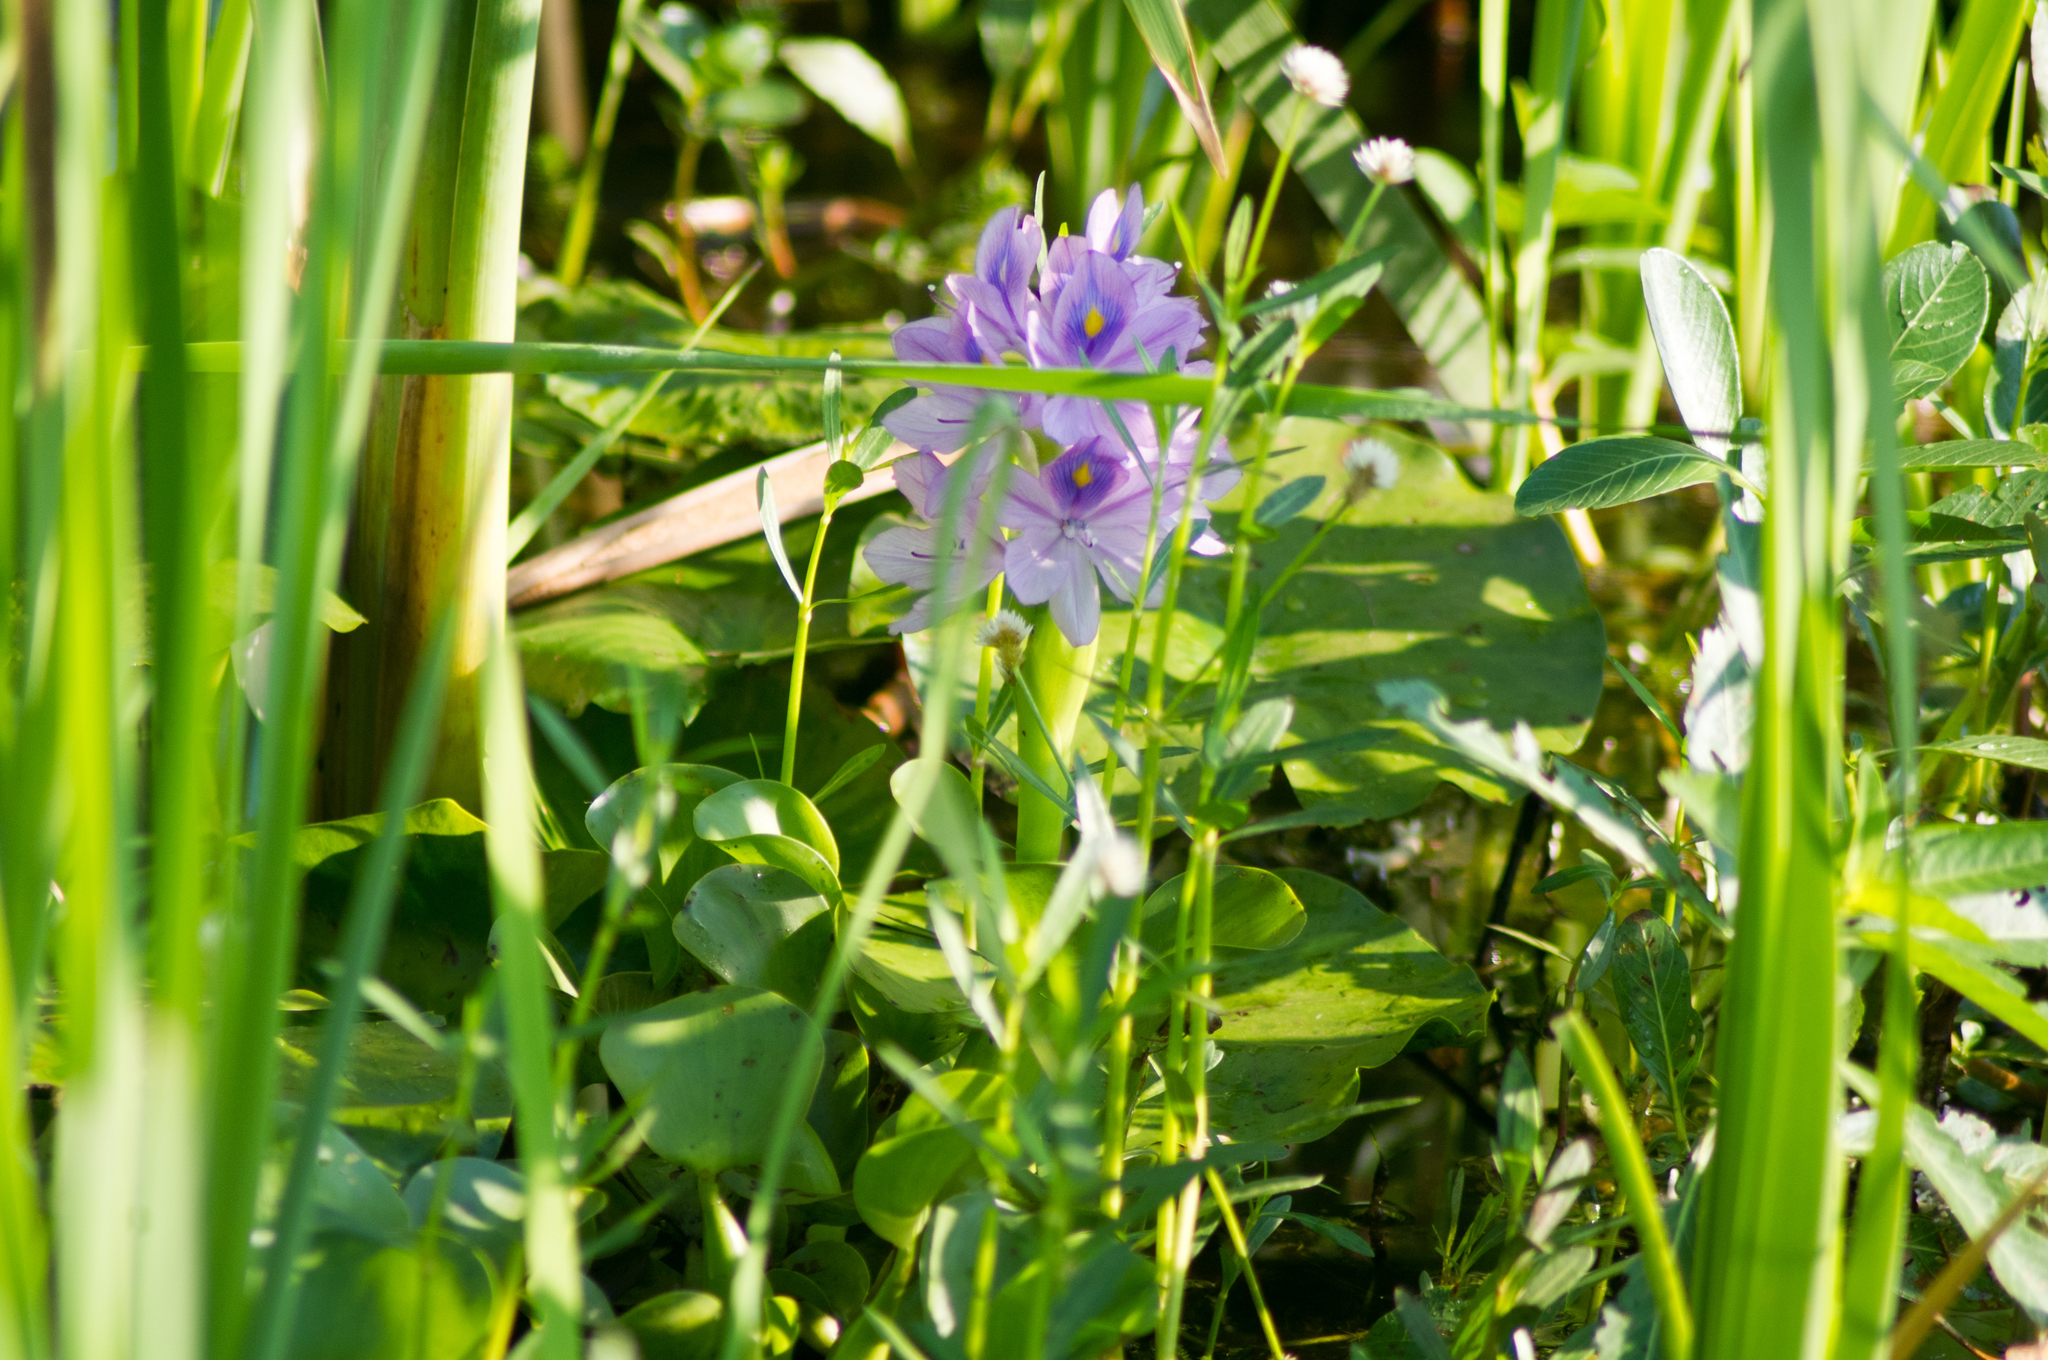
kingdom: Plantae
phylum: Tracheophyta
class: Liliopsida
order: Commelinales
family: Pontederiaceae
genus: Pontederia
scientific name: Pontederia crassipes
